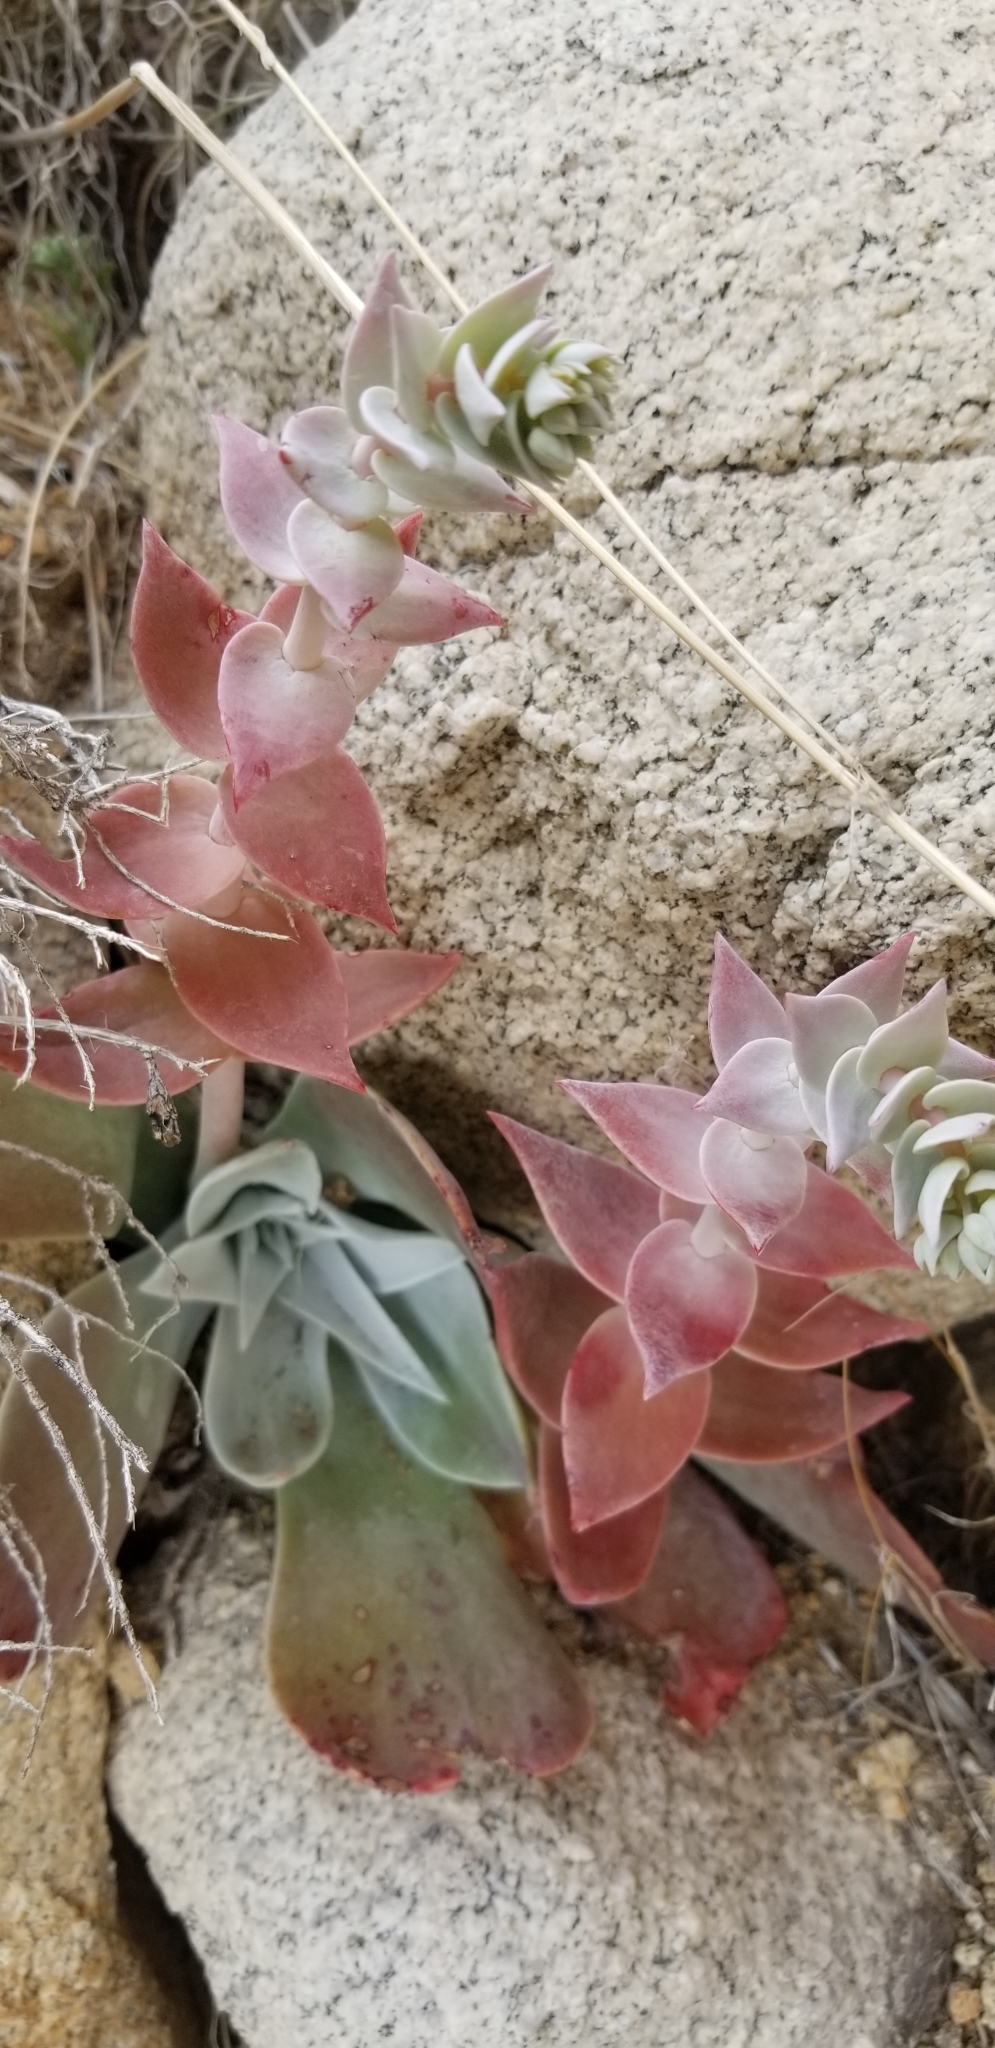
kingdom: Plantae
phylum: Tracheophyta
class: Magnoliopsida
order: Saxifragales
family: Crassulaceae
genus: Dudleya
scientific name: Dudleya arizonica
